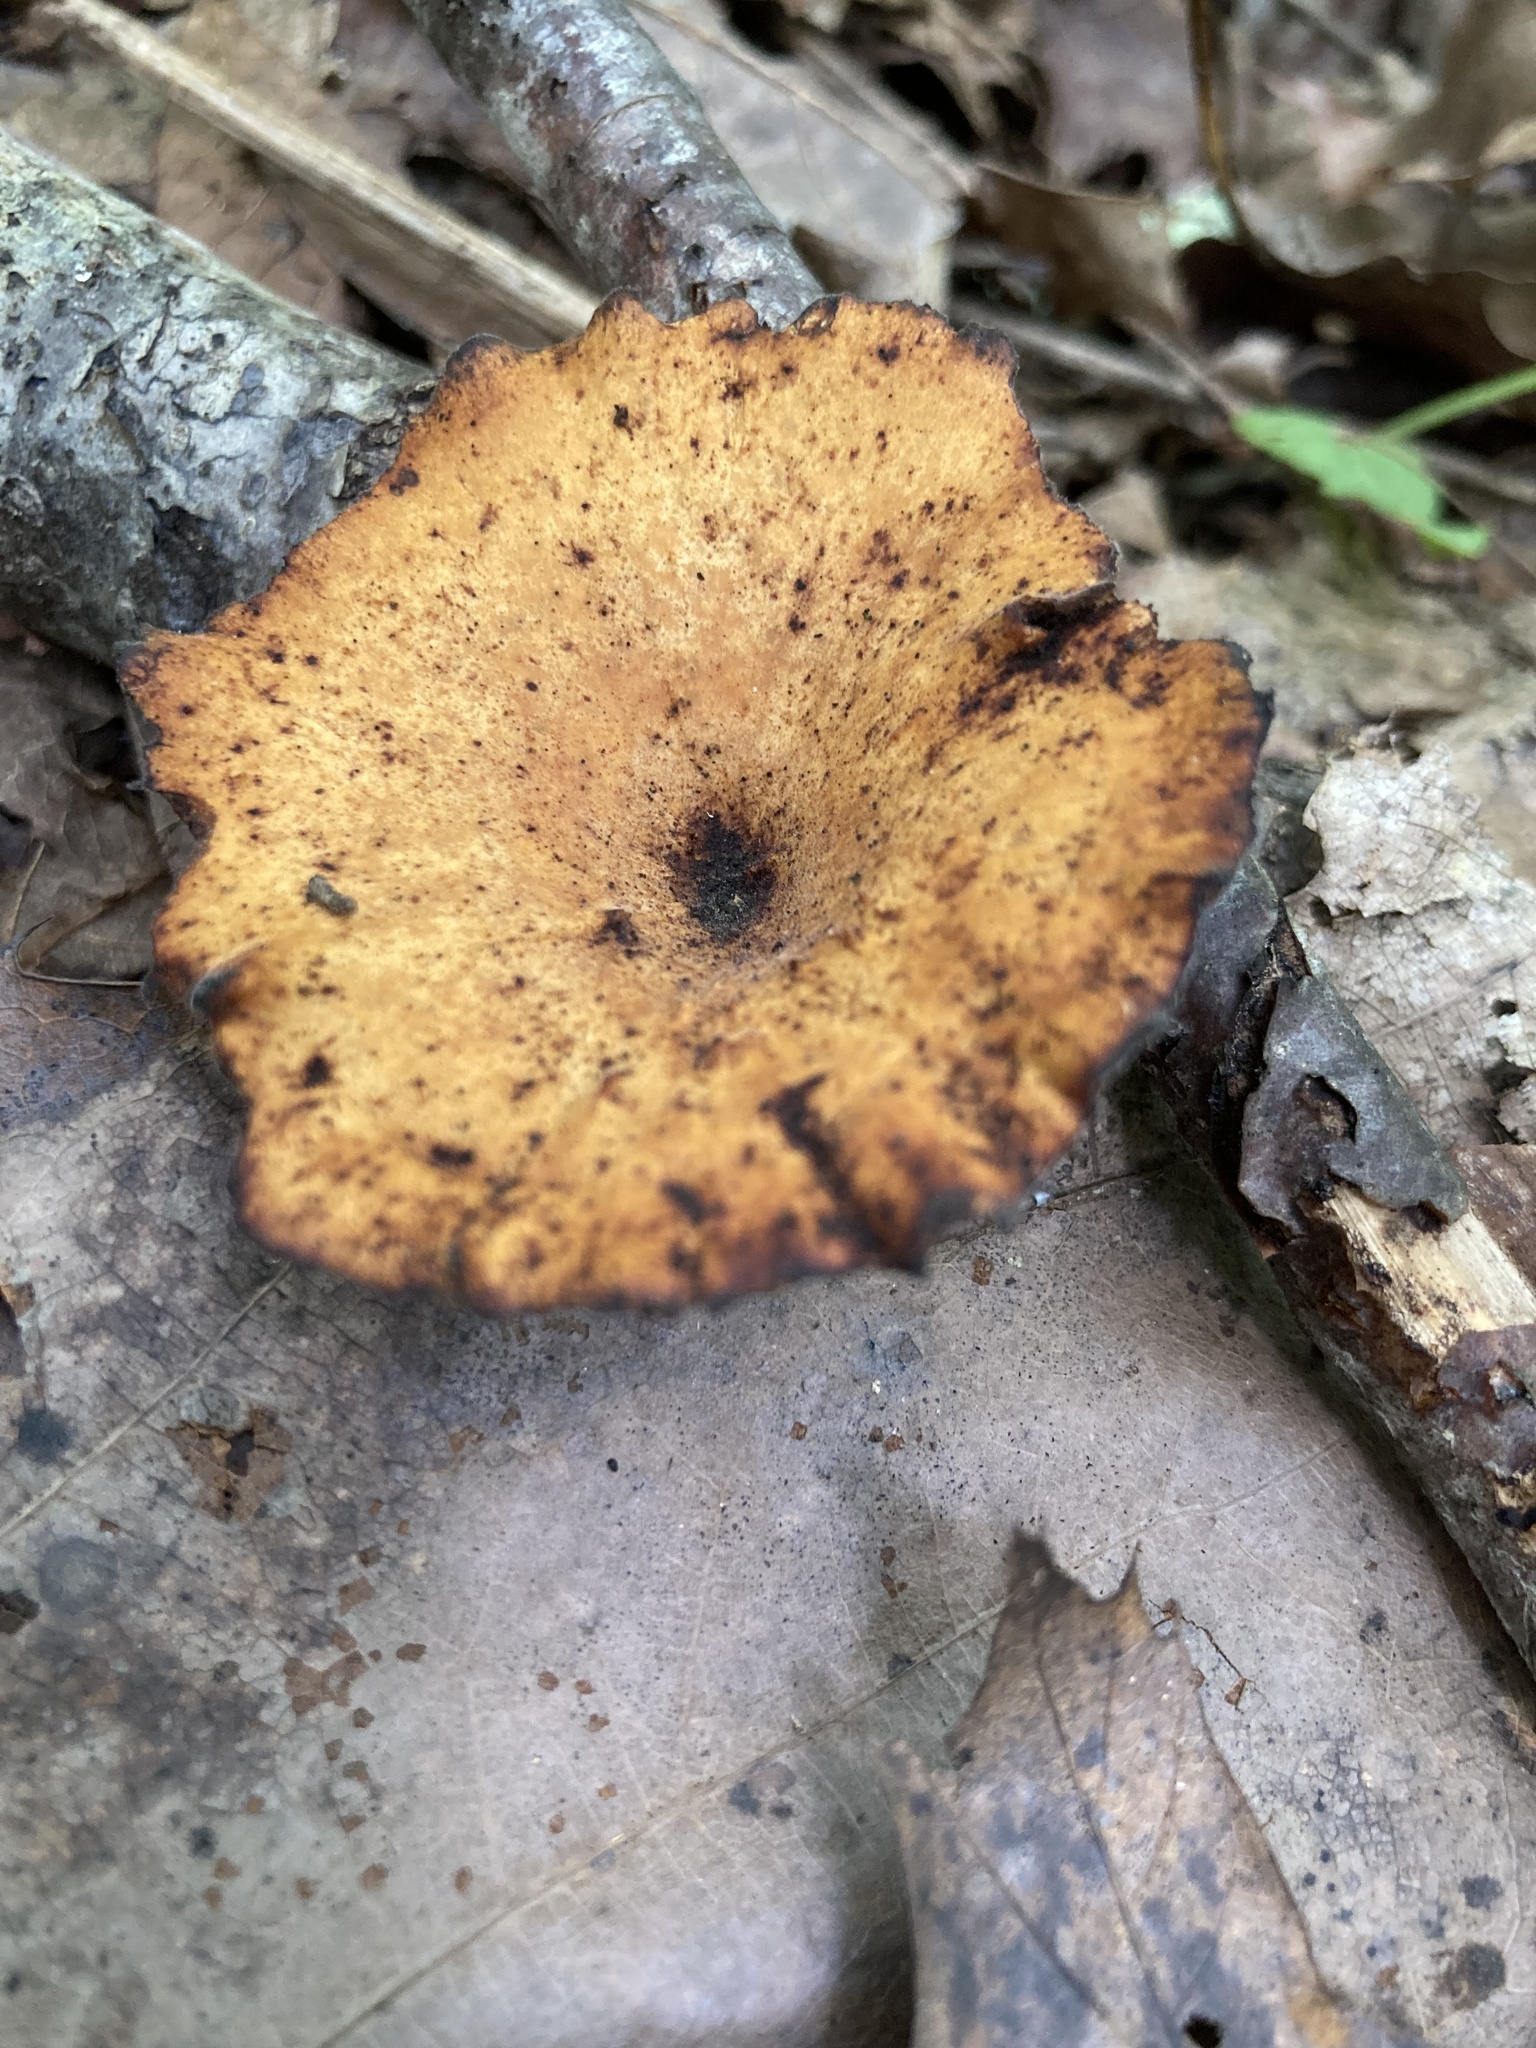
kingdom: Fungi
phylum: Basidiomycota
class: Agaricomycetes
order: Polyporales
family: Polyporaceae
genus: Cerioporus
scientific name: Cerioporus leptocephalus
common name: Blackfoot polypore
